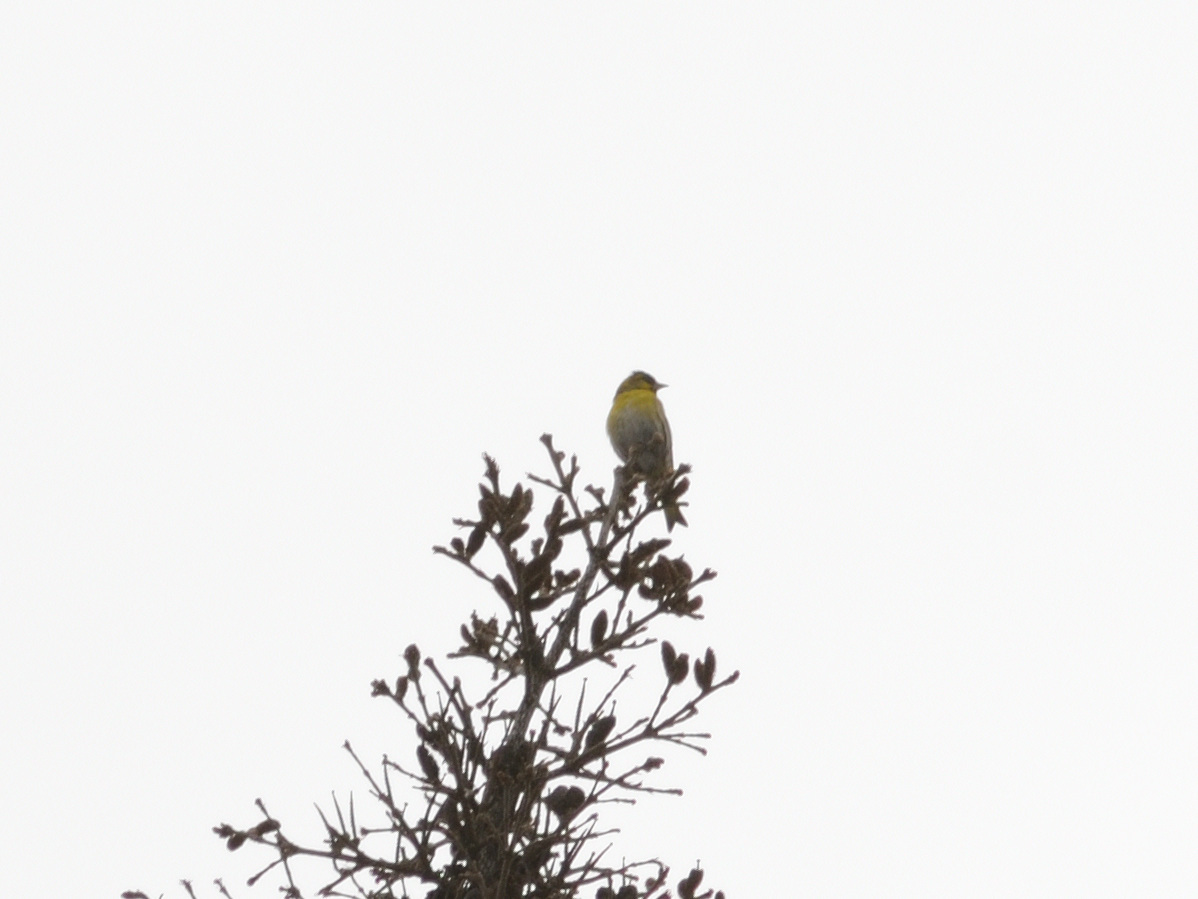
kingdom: Animalia
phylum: Chordata
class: Aves
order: Passeriformes
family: Fringillidae
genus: Spinus
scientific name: Spinus spinus
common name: Eurasian siskin
